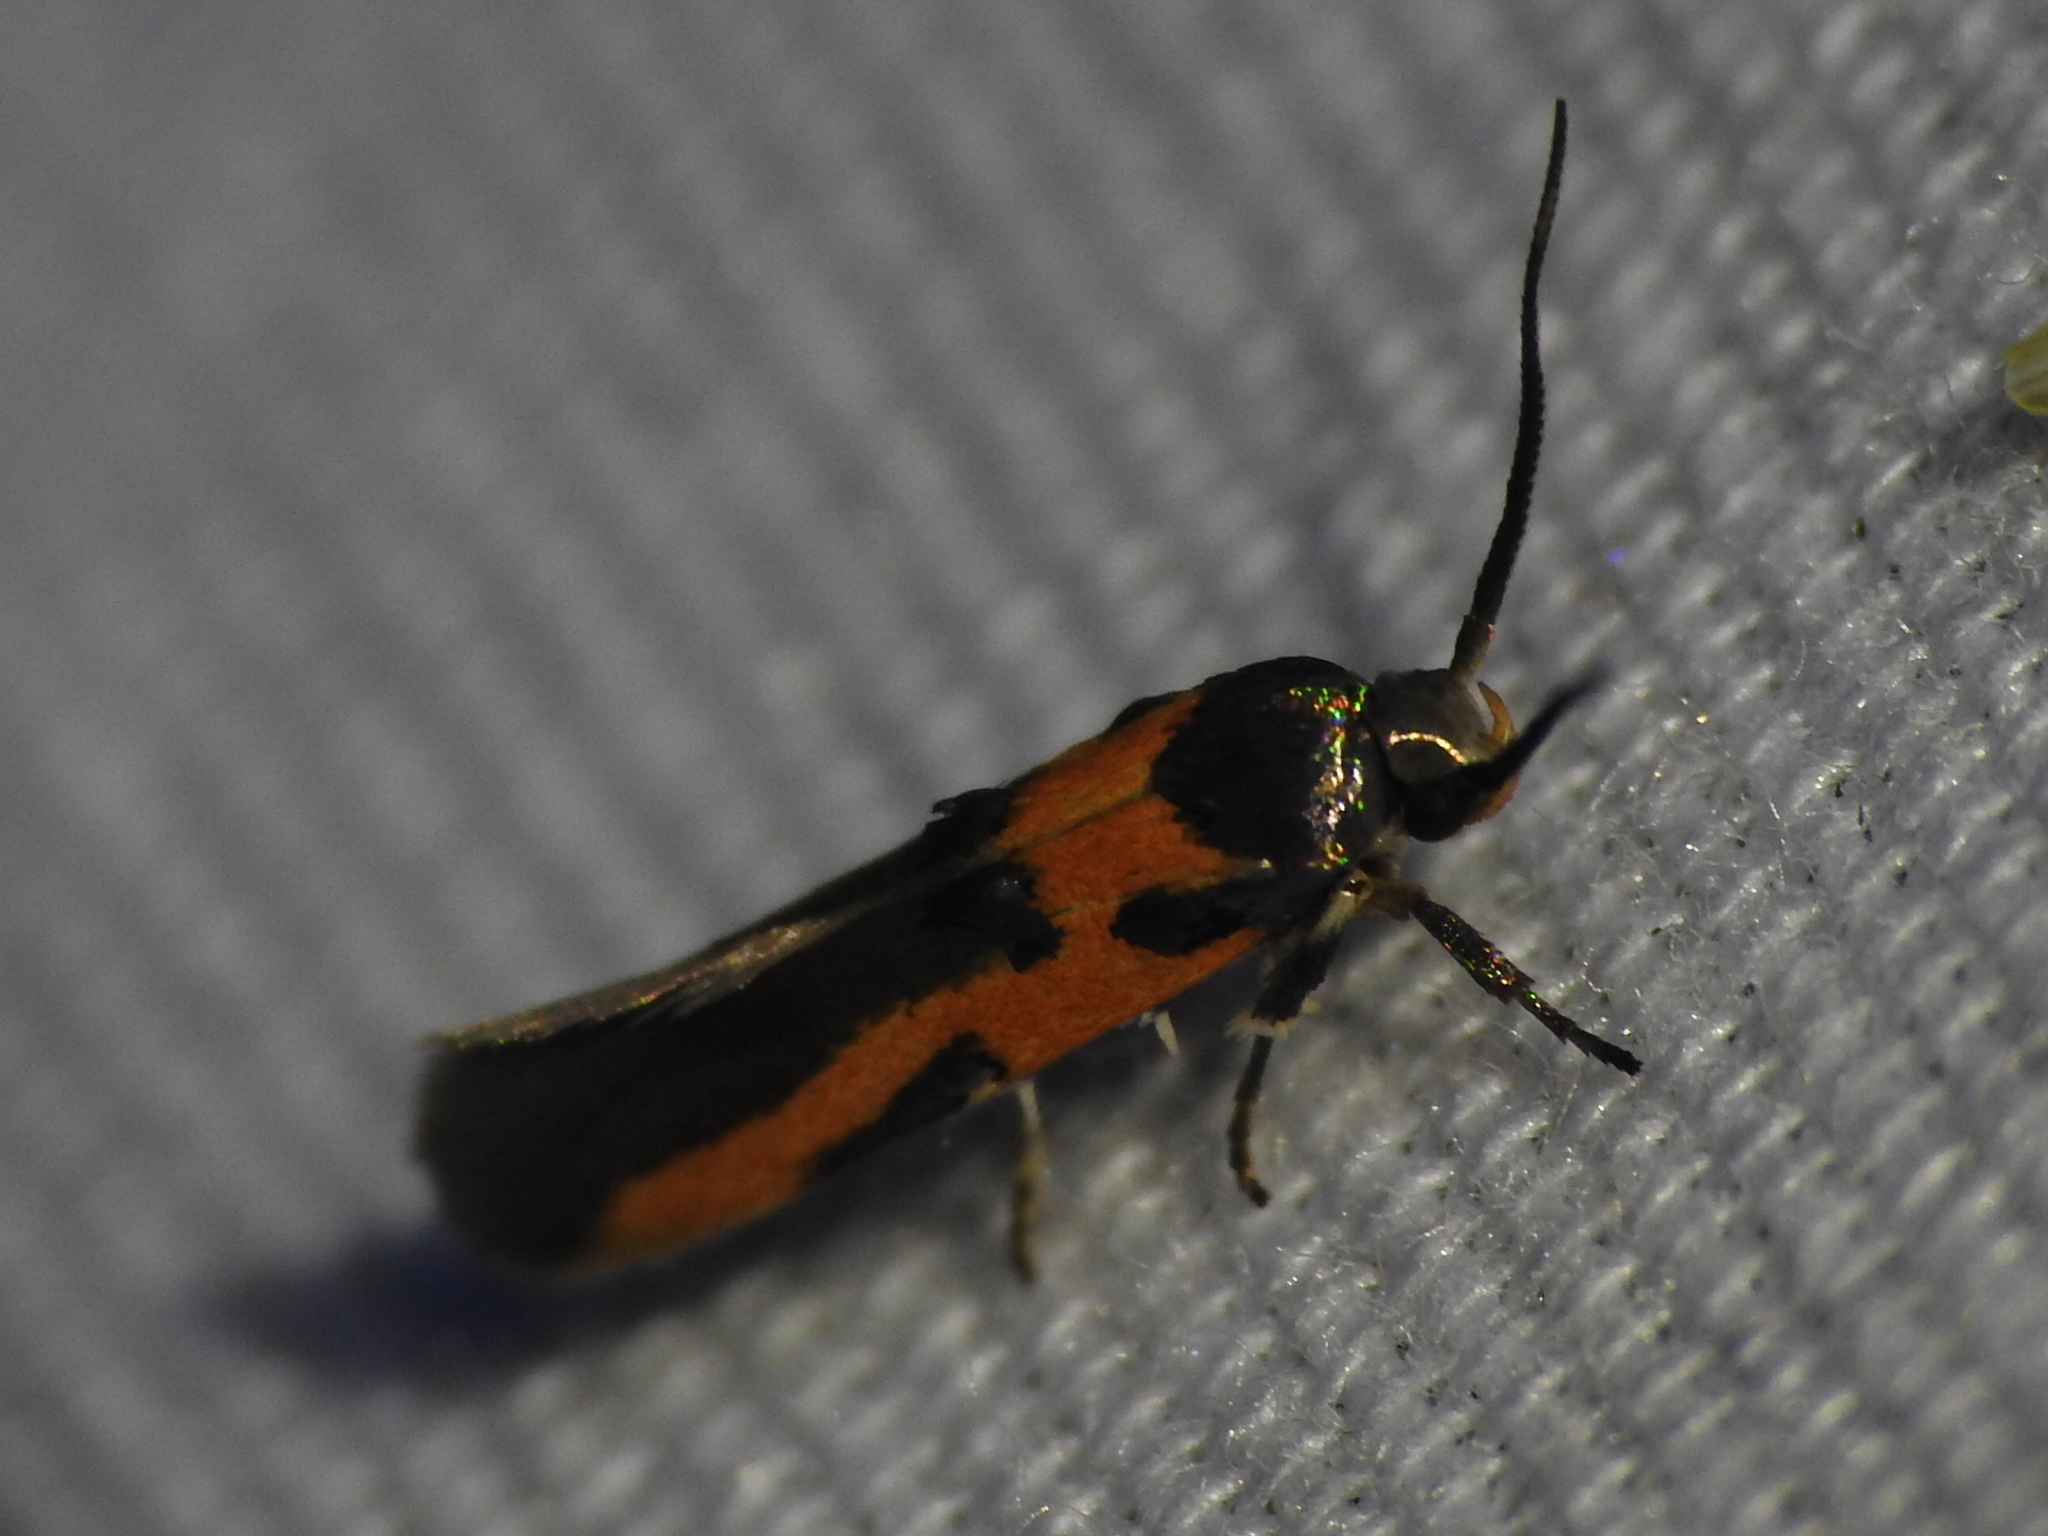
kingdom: Animalia
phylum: Arthropoda
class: Insecta
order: Lepidoptera
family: Cosmopterigidae
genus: Euclemensia
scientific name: Euclemensia bassettella
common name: Kermes scale moth
